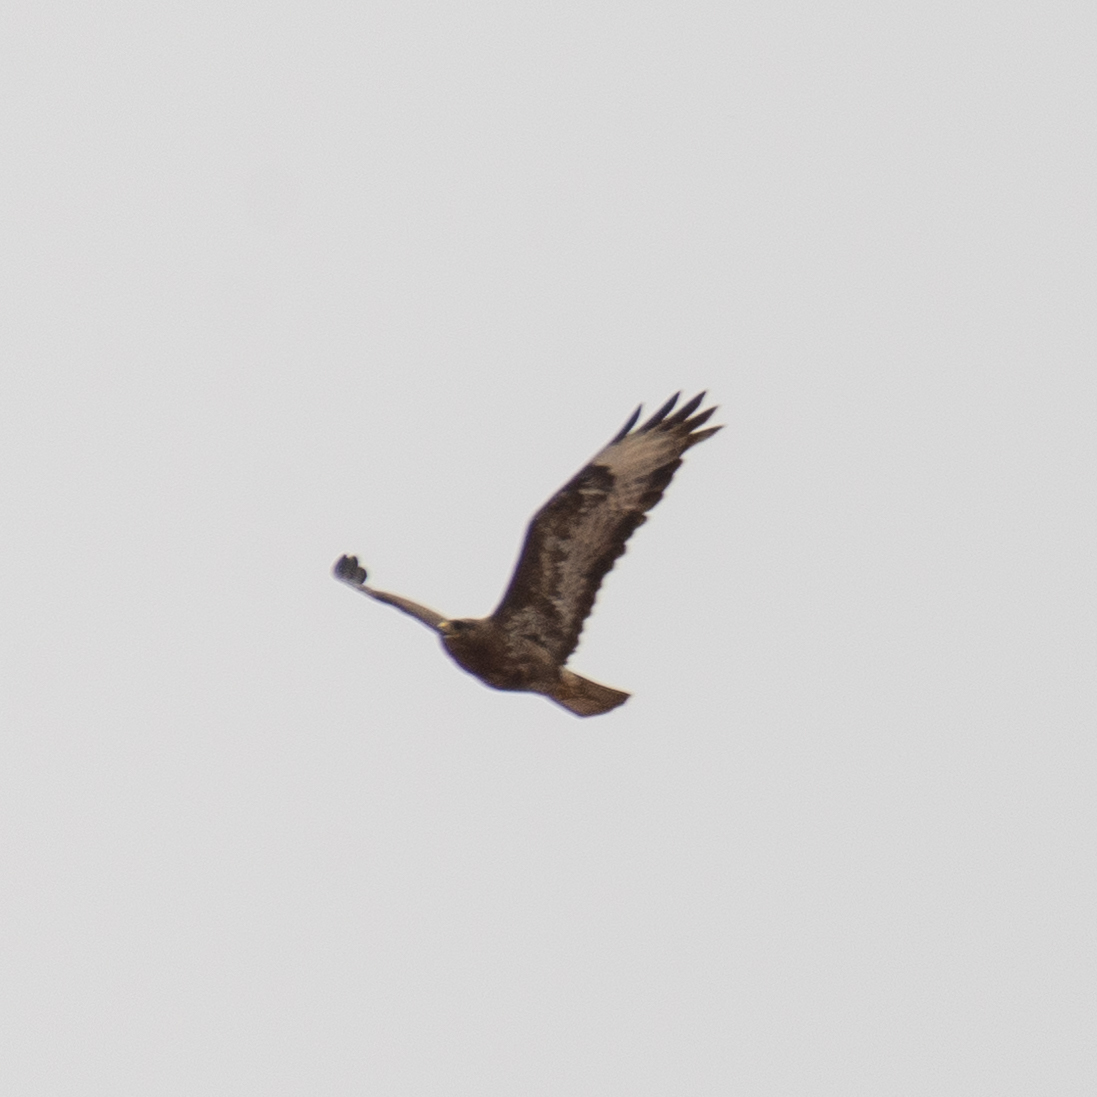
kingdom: Animalia
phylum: Chordata
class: Aves
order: Accipitriformes
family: Accipitridae
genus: Buteo
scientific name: Buteo buteo
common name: Common buzzard
